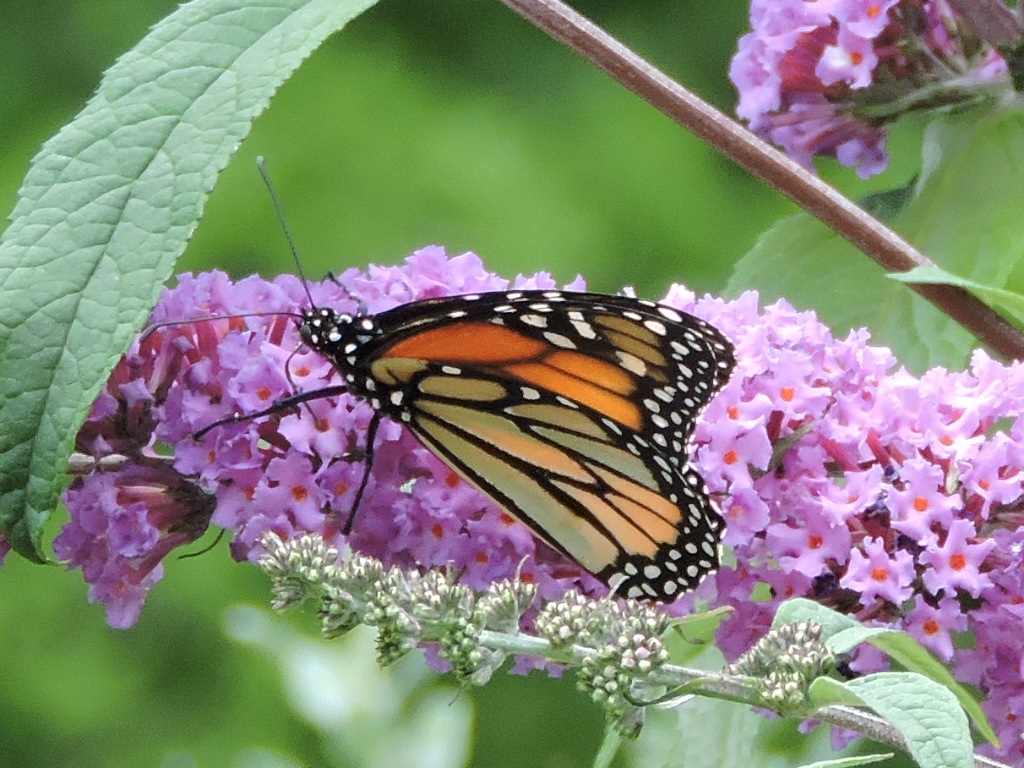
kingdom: Animalia
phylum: Arthropoda
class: Insecta
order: Lepidoptera
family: Nymphalidae
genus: Danaus
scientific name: Danaus plexippus
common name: Monarch
